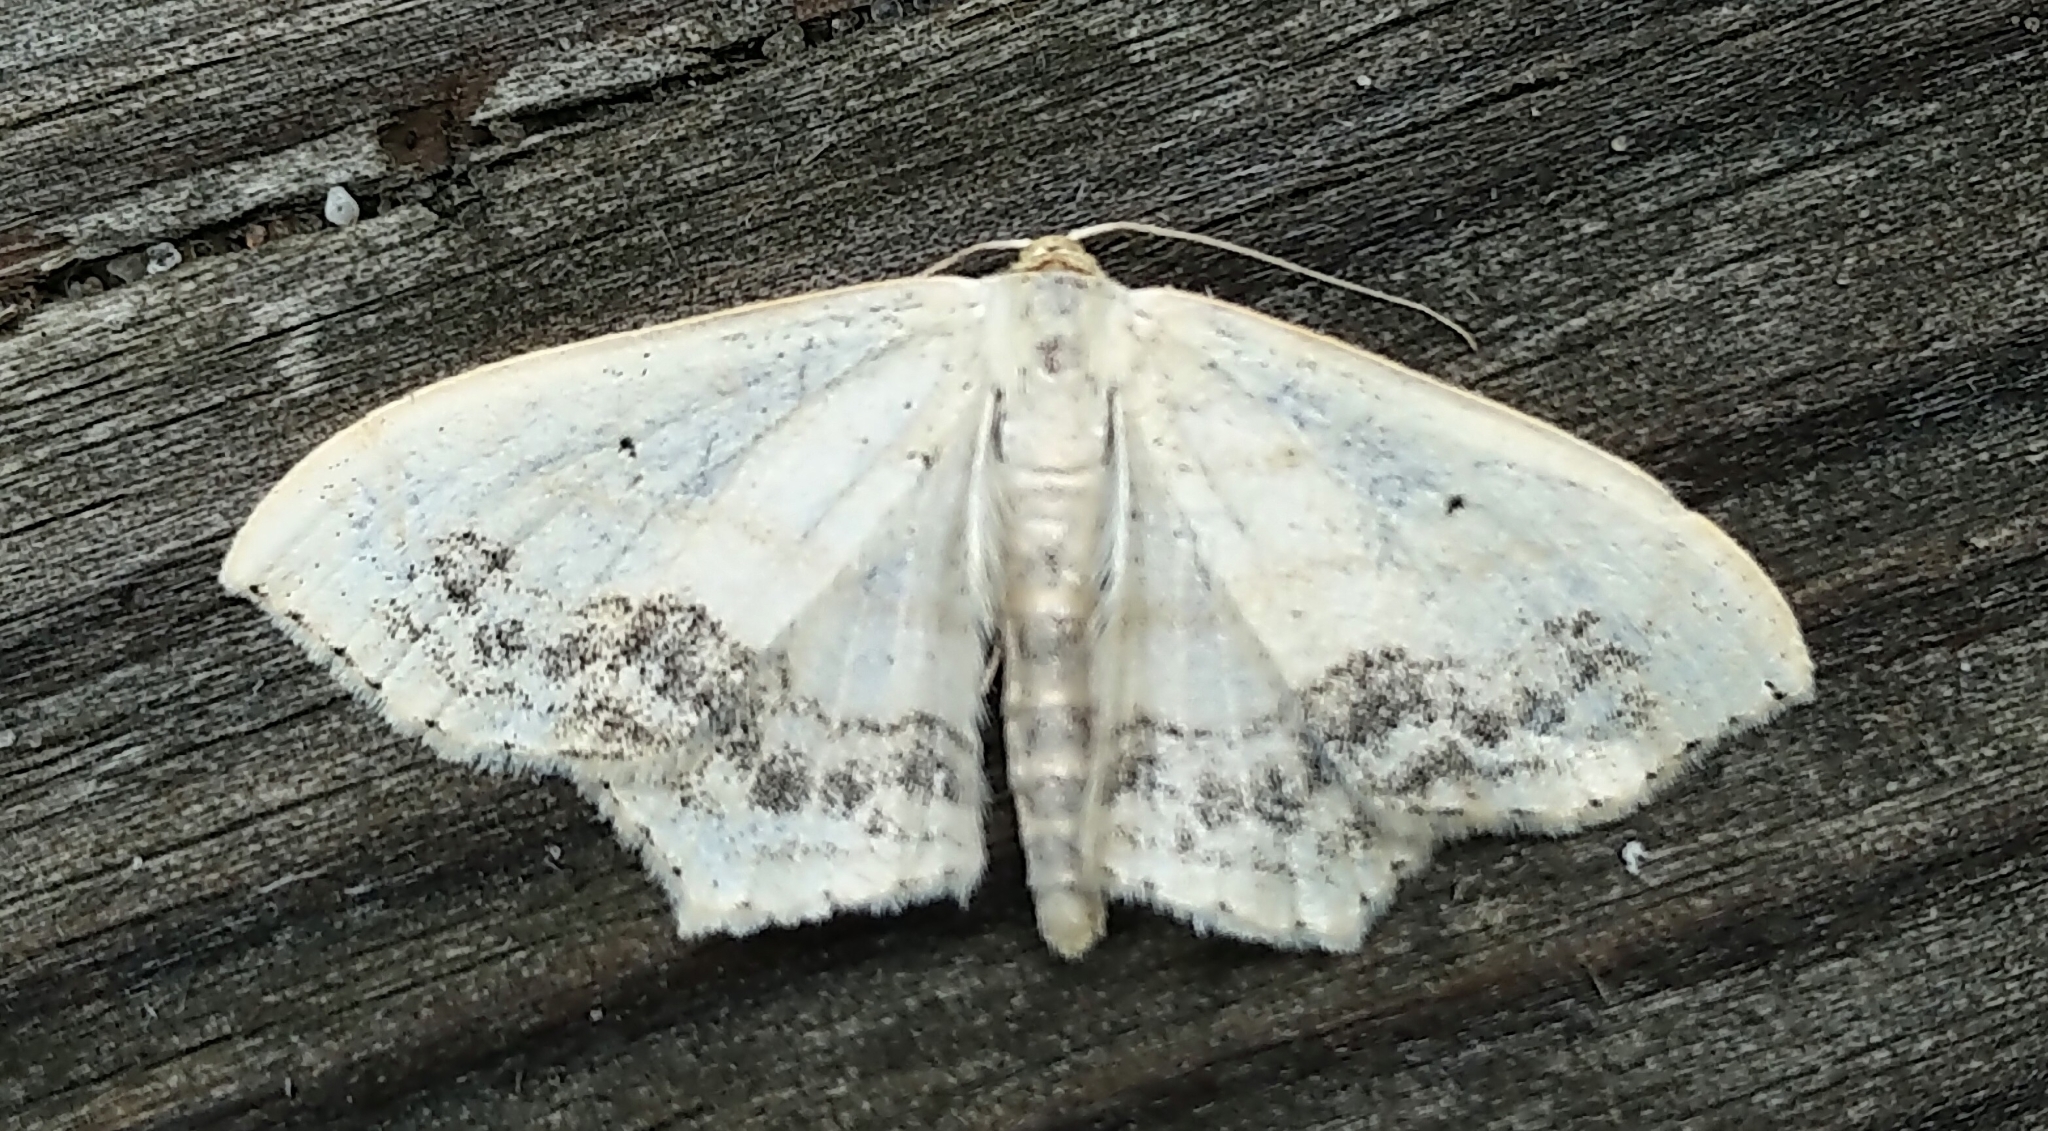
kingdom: Animalia
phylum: Arthropoda
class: Insecta
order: Lepidoptera
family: Geometridae
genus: Scopula
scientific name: Scopula limboundata
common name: Large lace border
